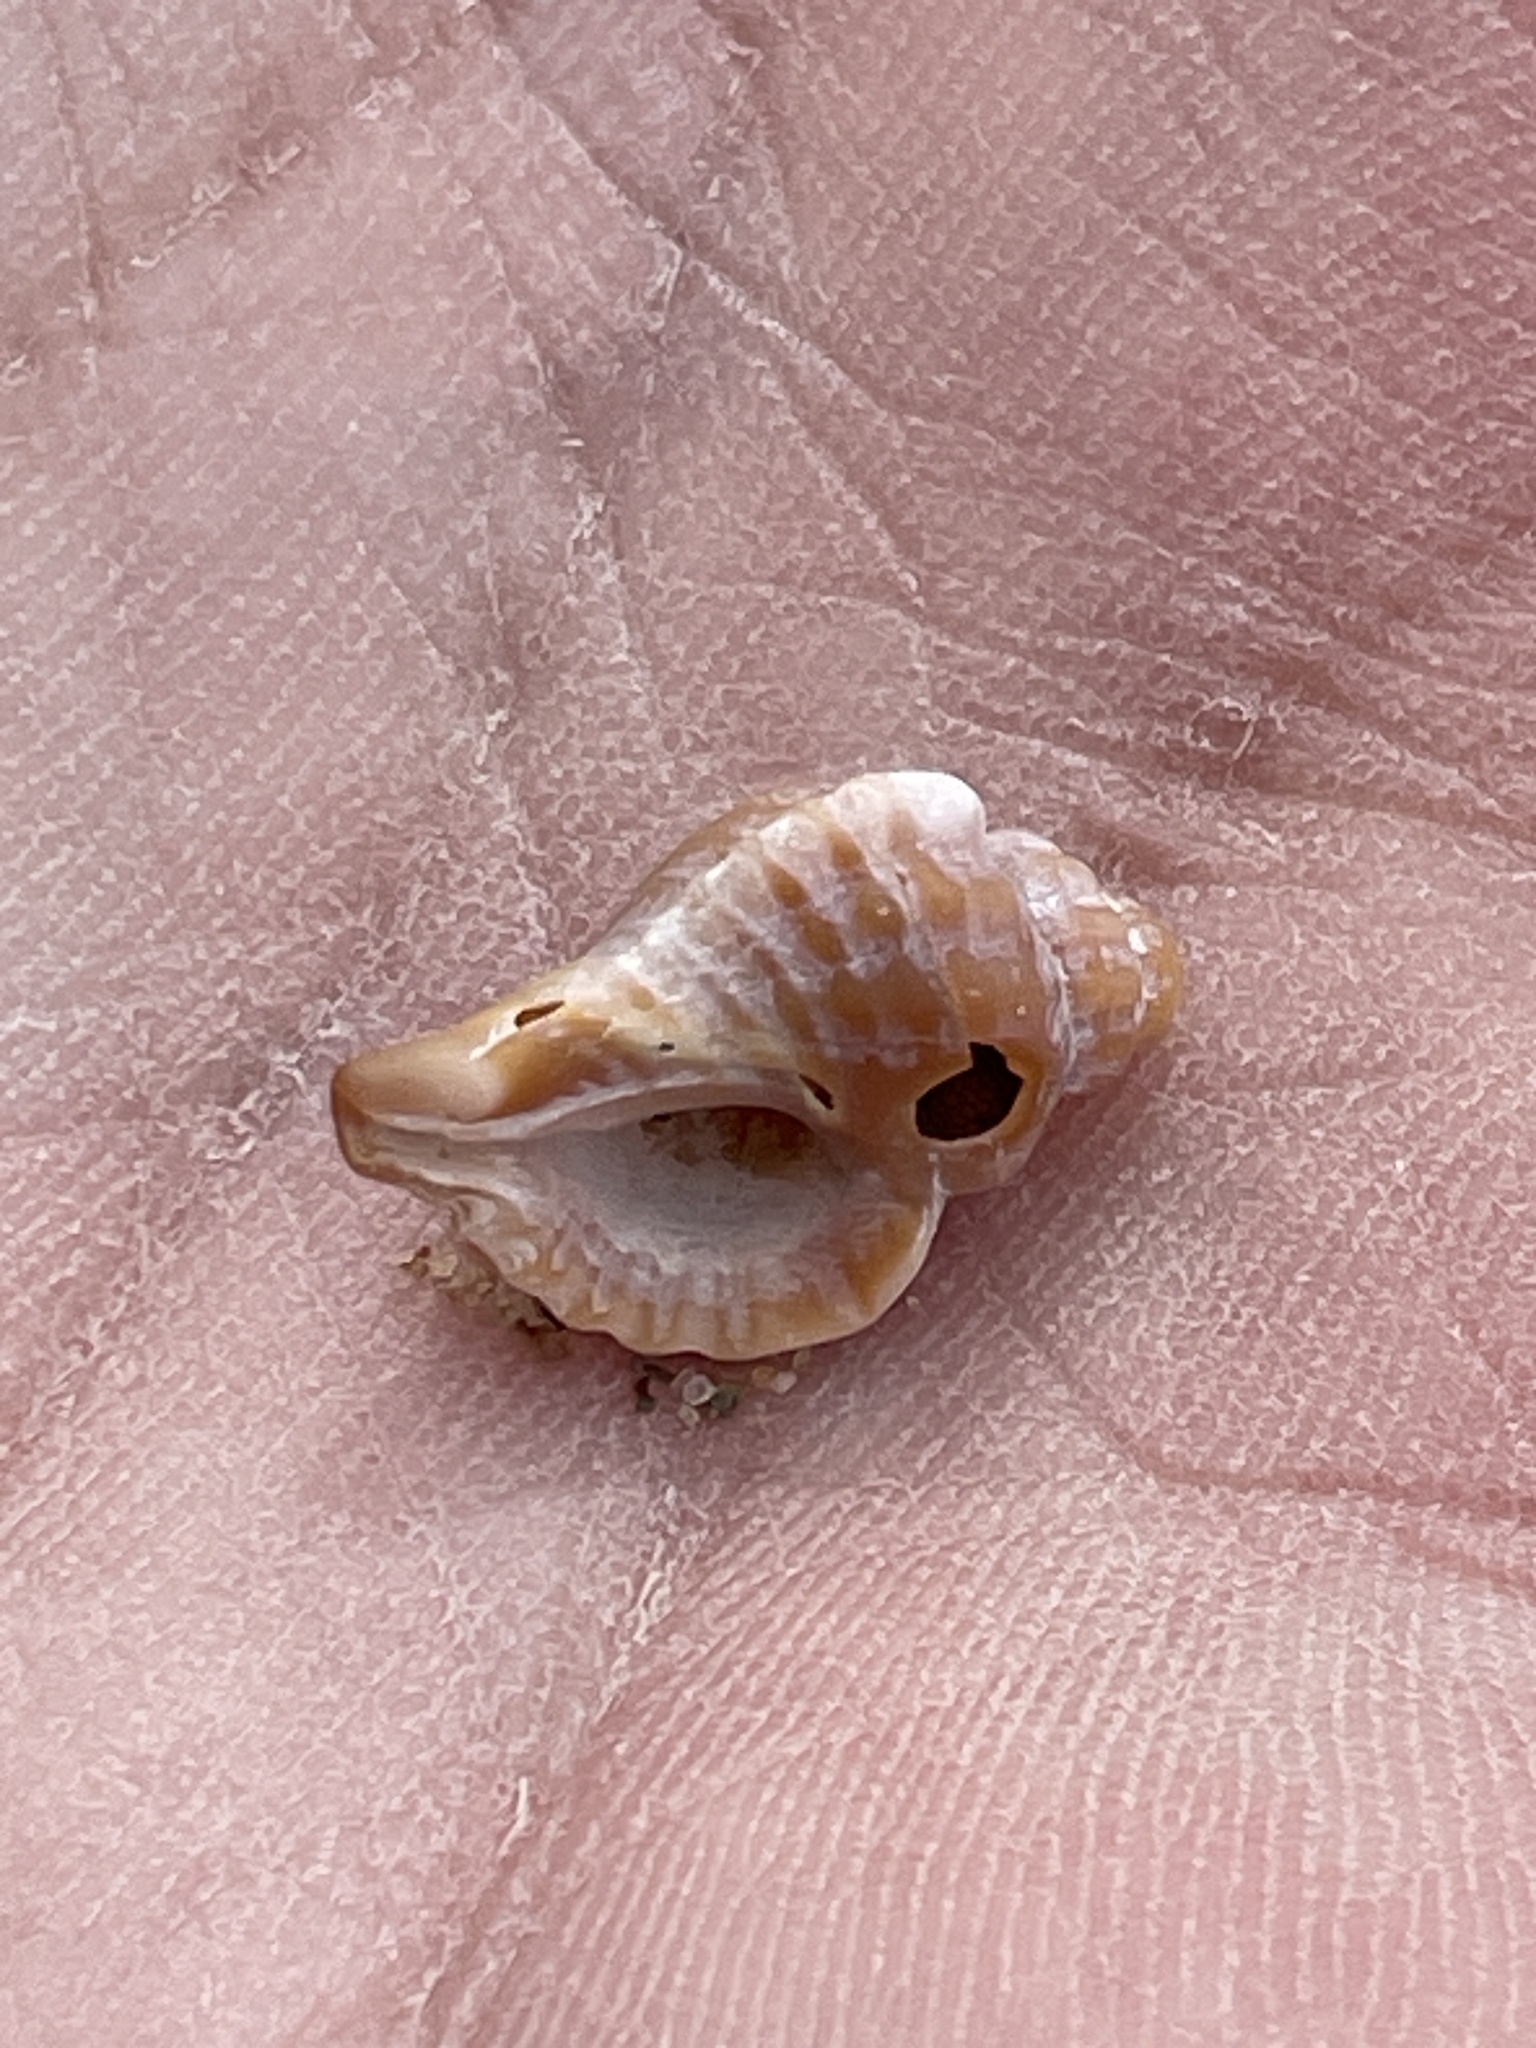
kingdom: Animalia
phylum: Mollusca
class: Gastropoda
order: Neogastropoda
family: Muricidae
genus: Urosalpinx
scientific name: Urosalpinx cinerea
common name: American sting winkle
